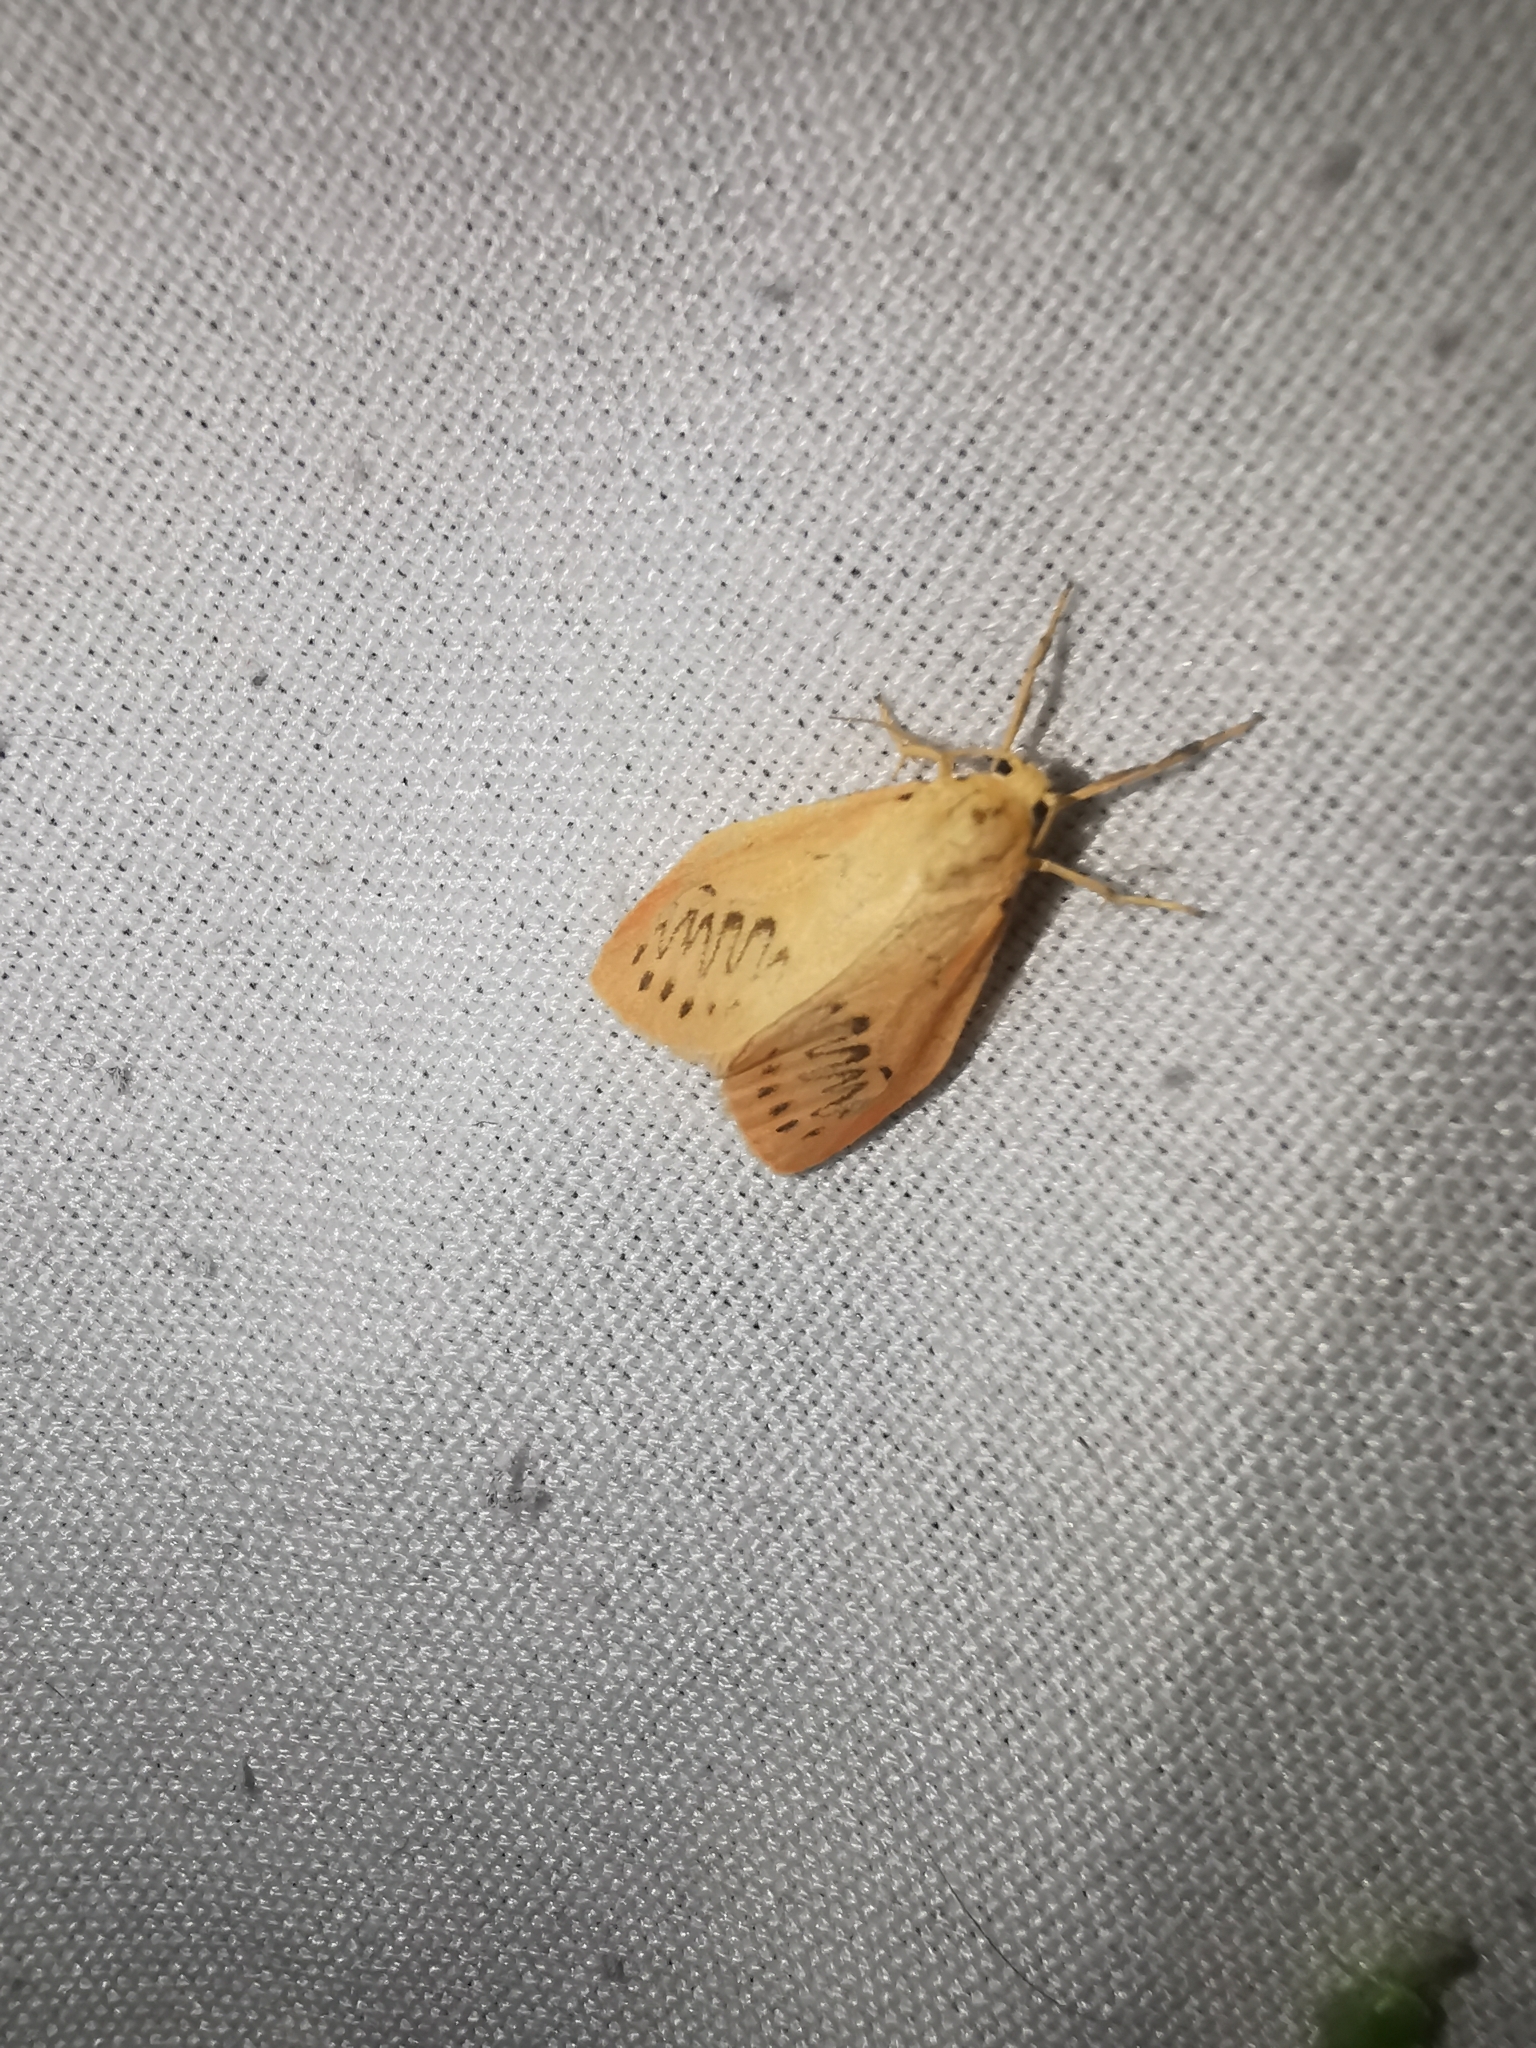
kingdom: Animalia
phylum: Arthropoda
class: Insecta
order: Lepidoptera
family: Erebidae
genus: Miltochrista
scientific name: Miltochrista miniata
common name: Rosy footman
